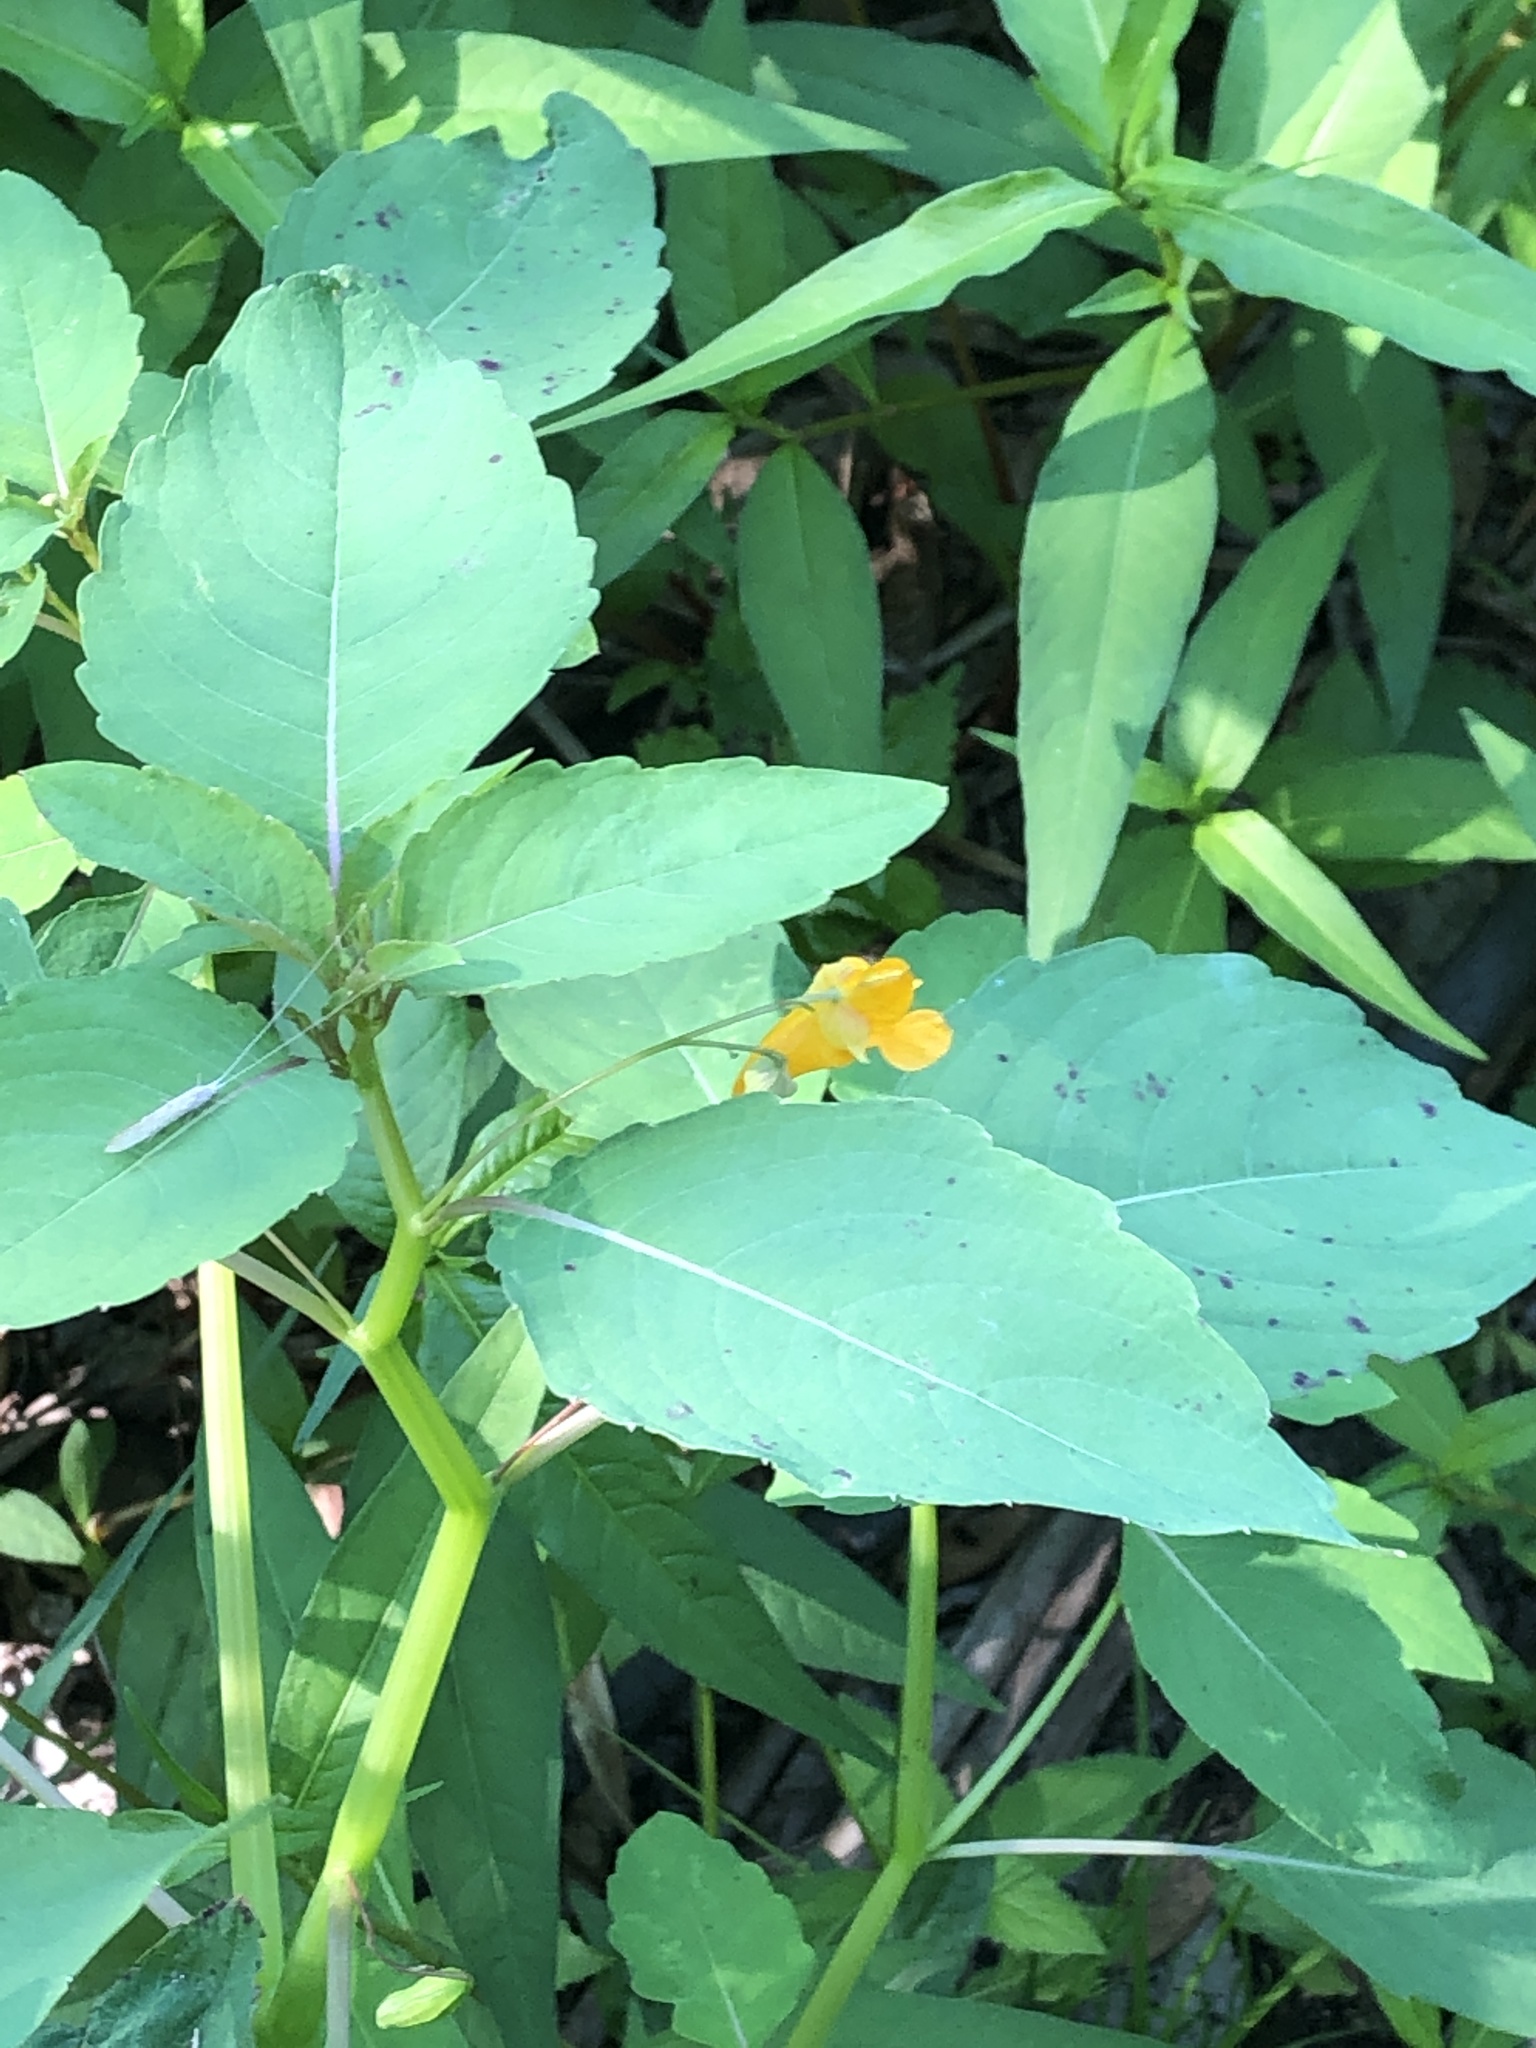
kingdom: Plantae
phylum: Tracheophyta
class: Magnoliopsida
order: Ericales
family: Balsaminaceae
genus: Impatiens
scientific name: Impatiens capensis
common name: Orange balsam
